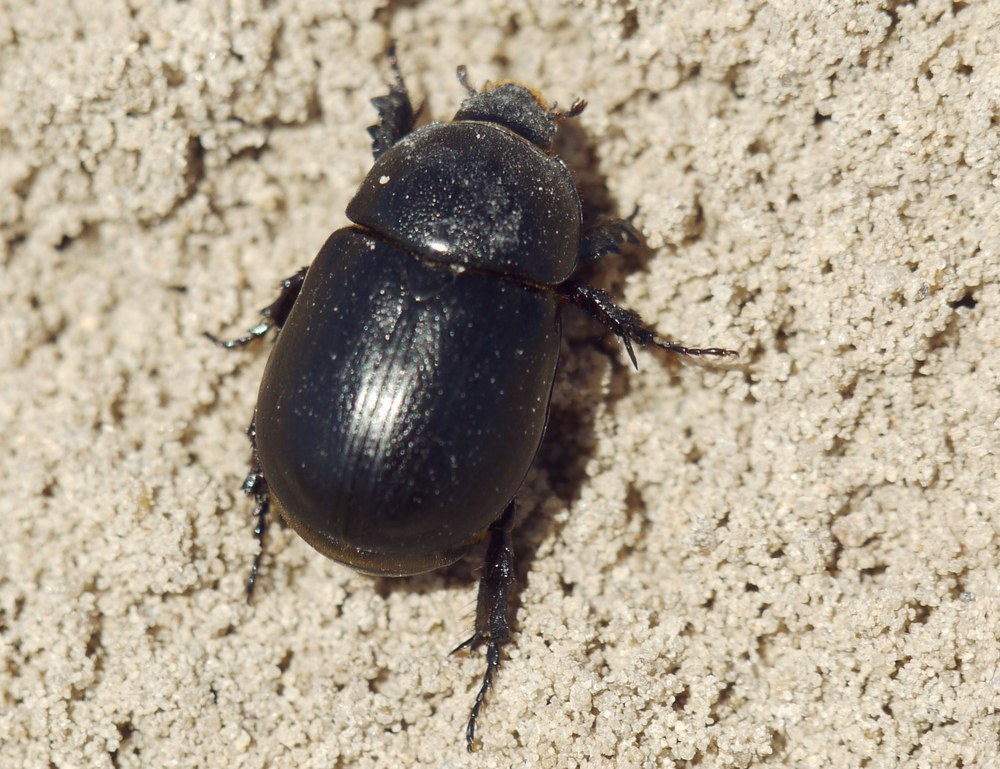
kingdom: Animalia
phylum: Arthropoda
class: Insecta
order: Coleoptera
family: Scarabaeidae
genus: Pentodon
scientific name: Pentodon idiota
